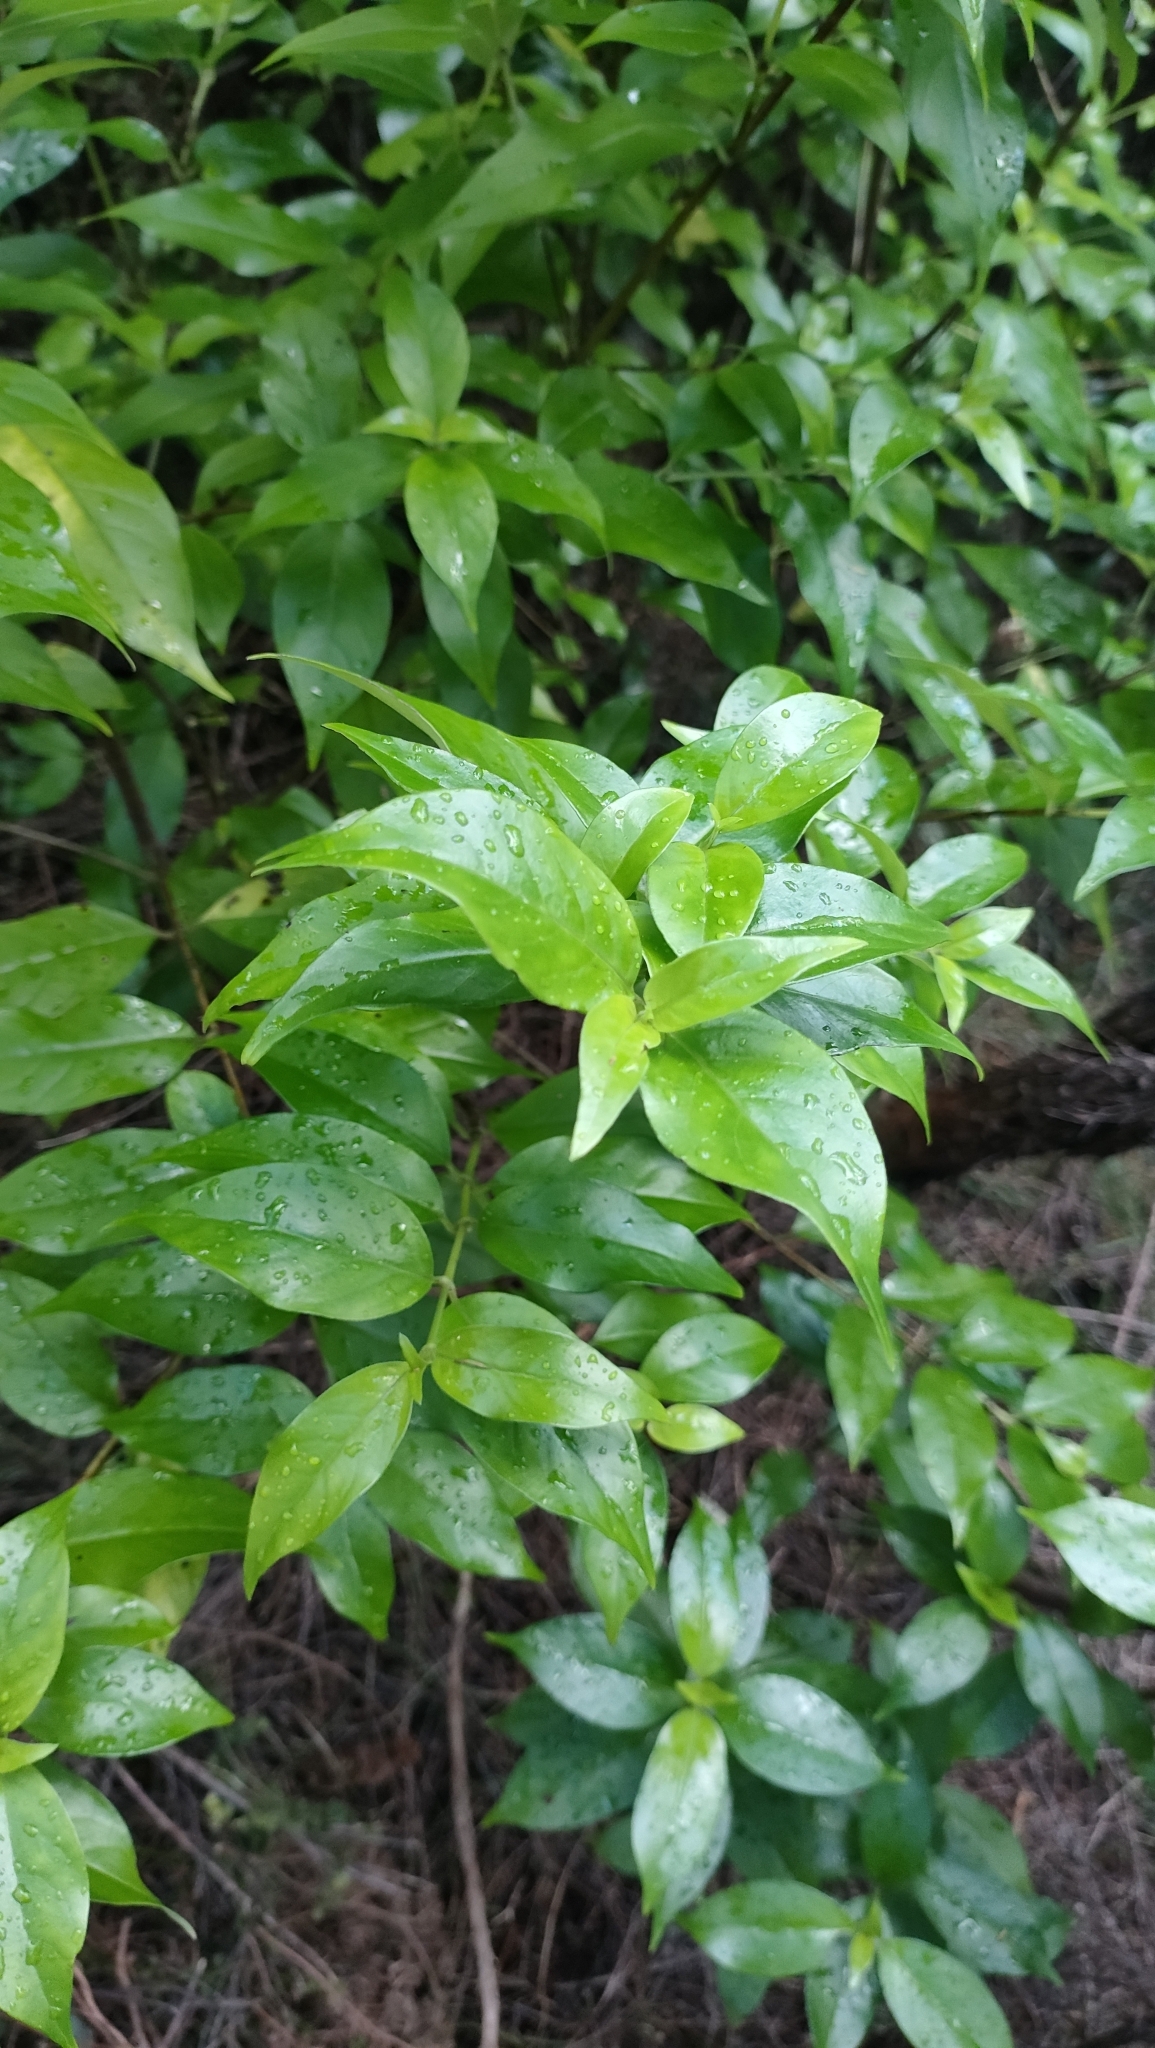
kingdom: Plantae
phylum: Tracheophyta
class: Magnoliopsida
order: Gentianales
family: Loganiaceae
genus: Geniostoma
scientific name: Geniostoma ligustrifolium
